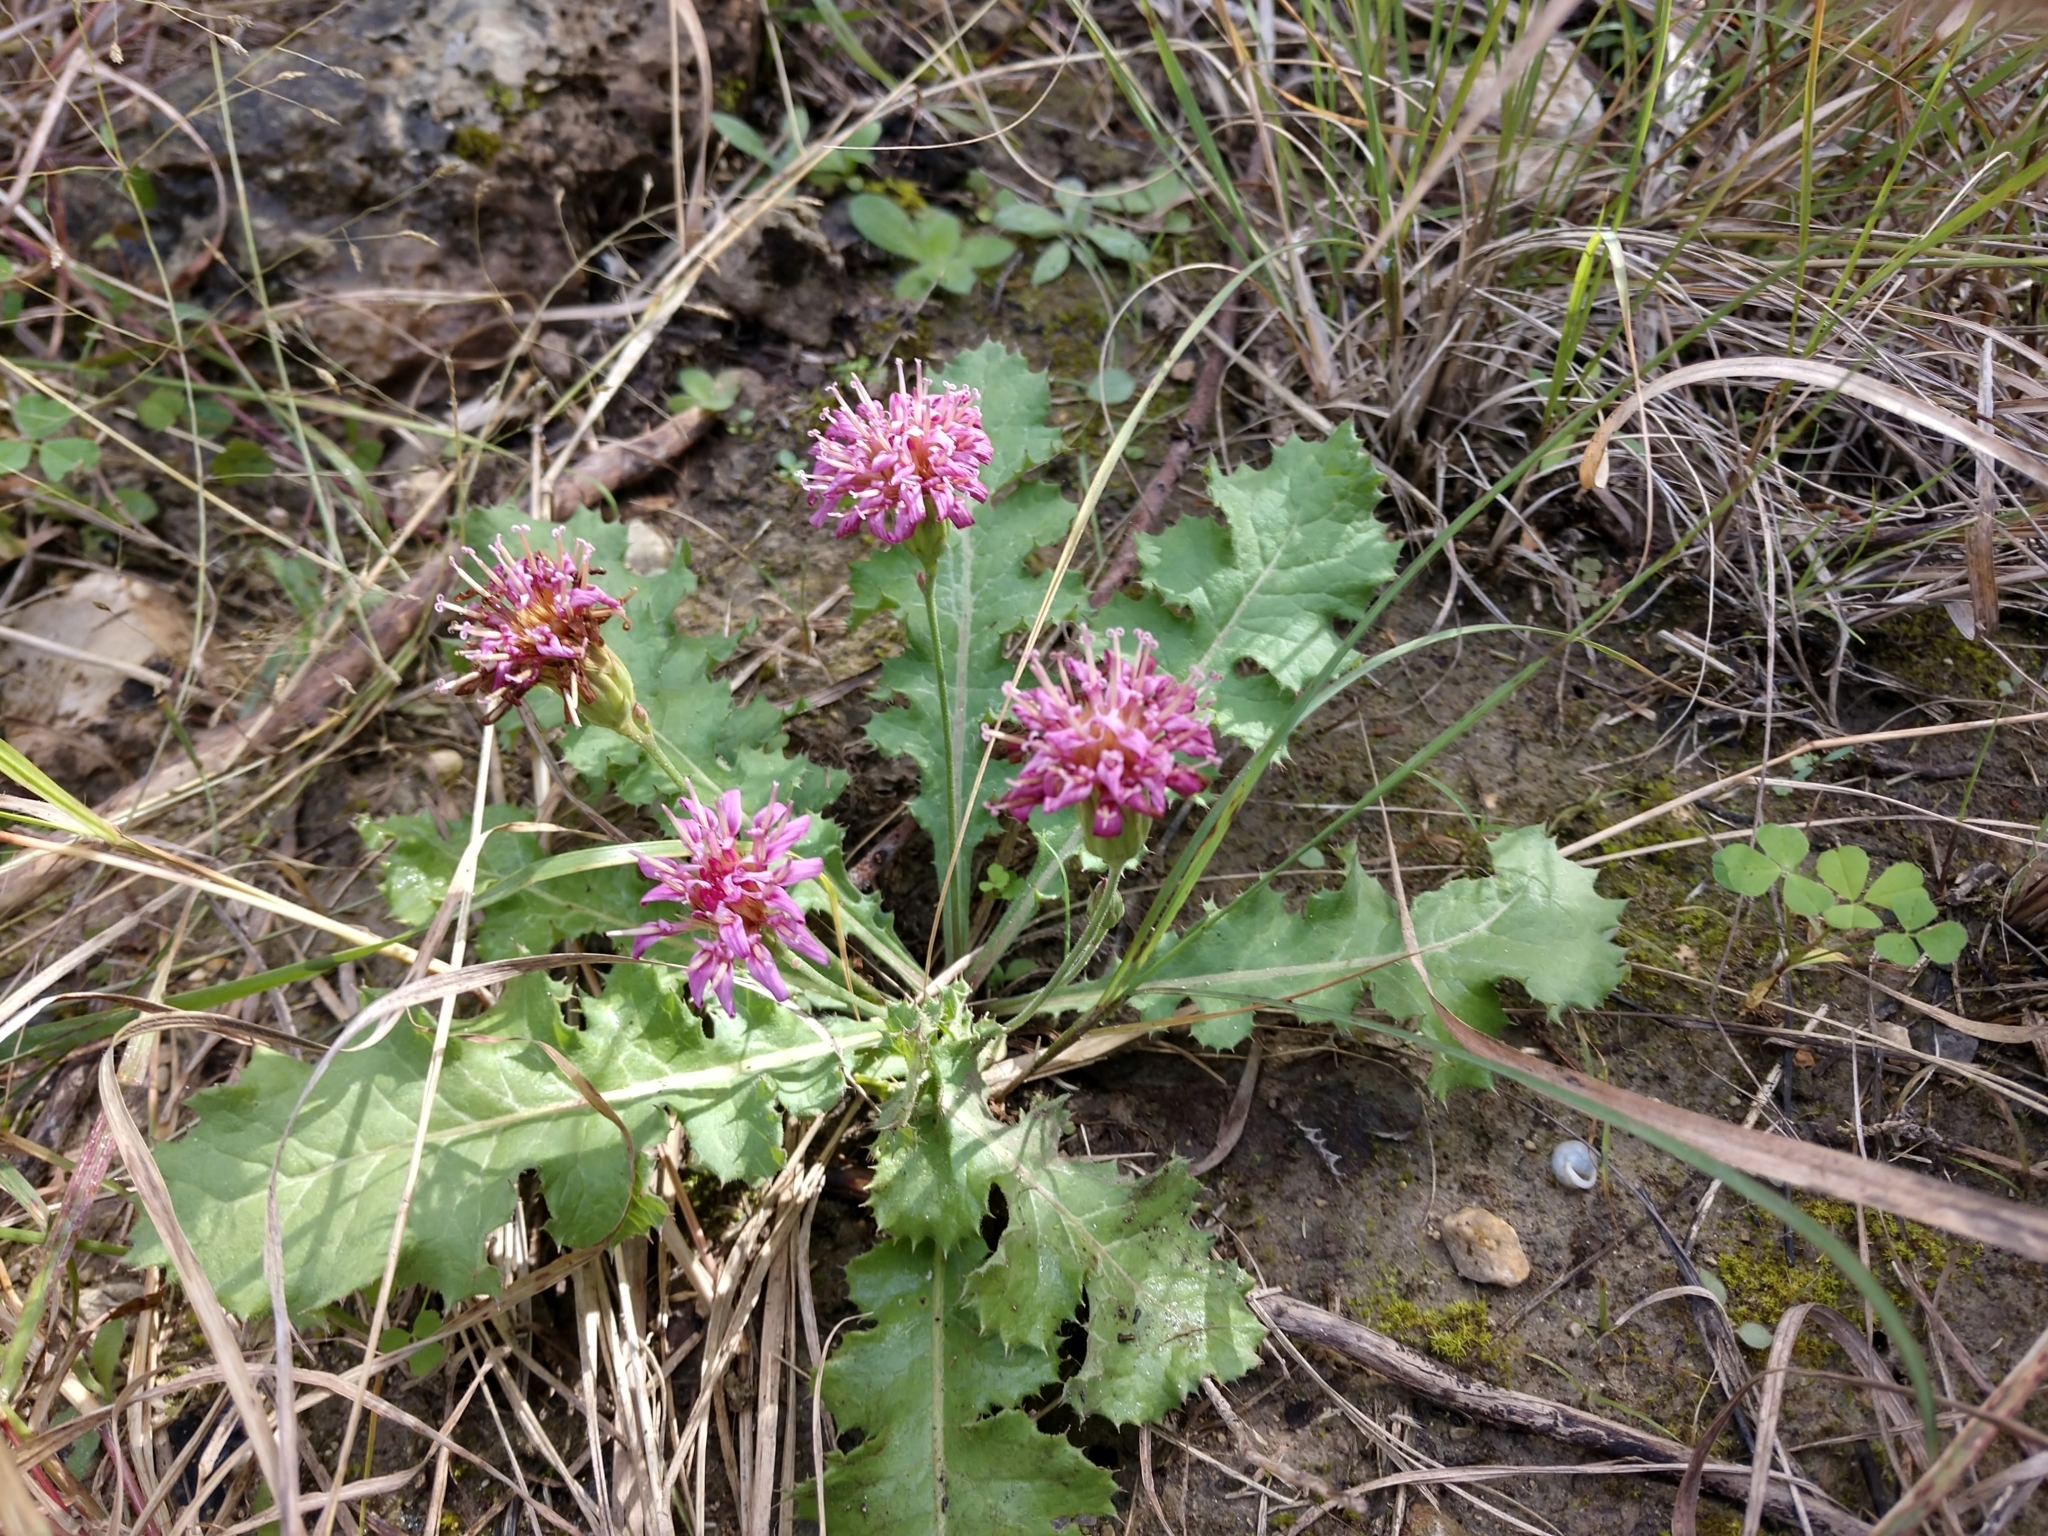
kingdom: Plantae
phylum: Tracheophyta
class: Magnoliopsida
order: Asterales
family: Asteraceae
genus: Acourtia
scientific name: Acourtia runcinata
